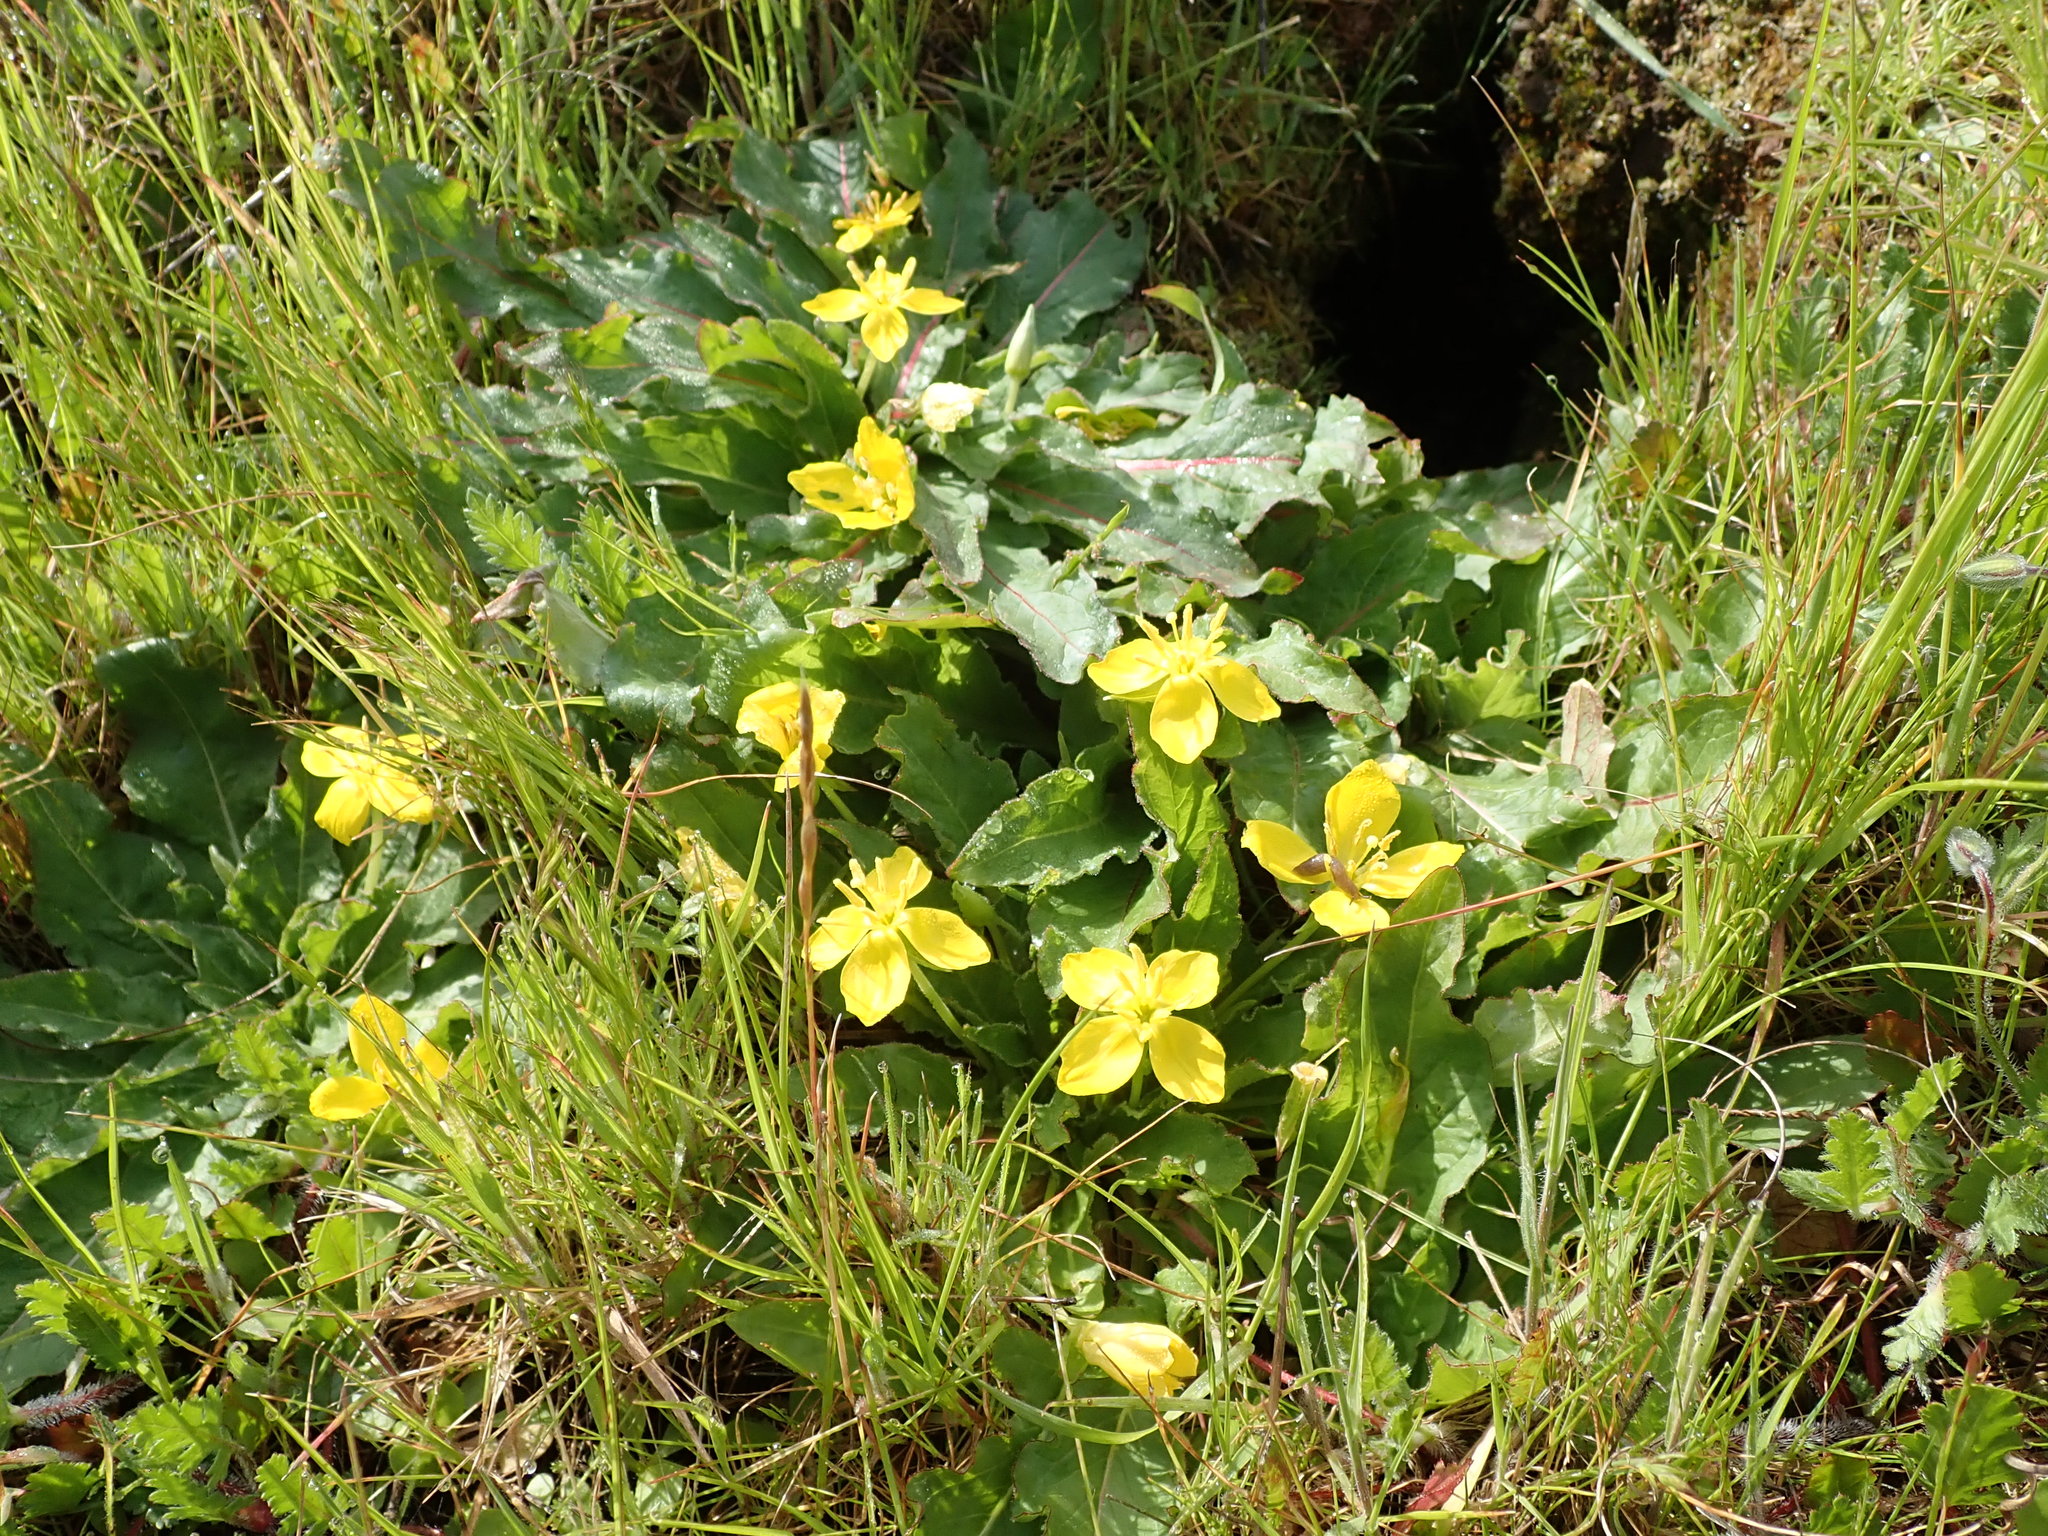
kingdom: Plantae
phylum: Tracheophyta
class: Magnoliopsida
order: Myrtales
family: Onagraceae
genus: Taraxia
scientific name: Taraxia ovata
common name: Goldeneggs
